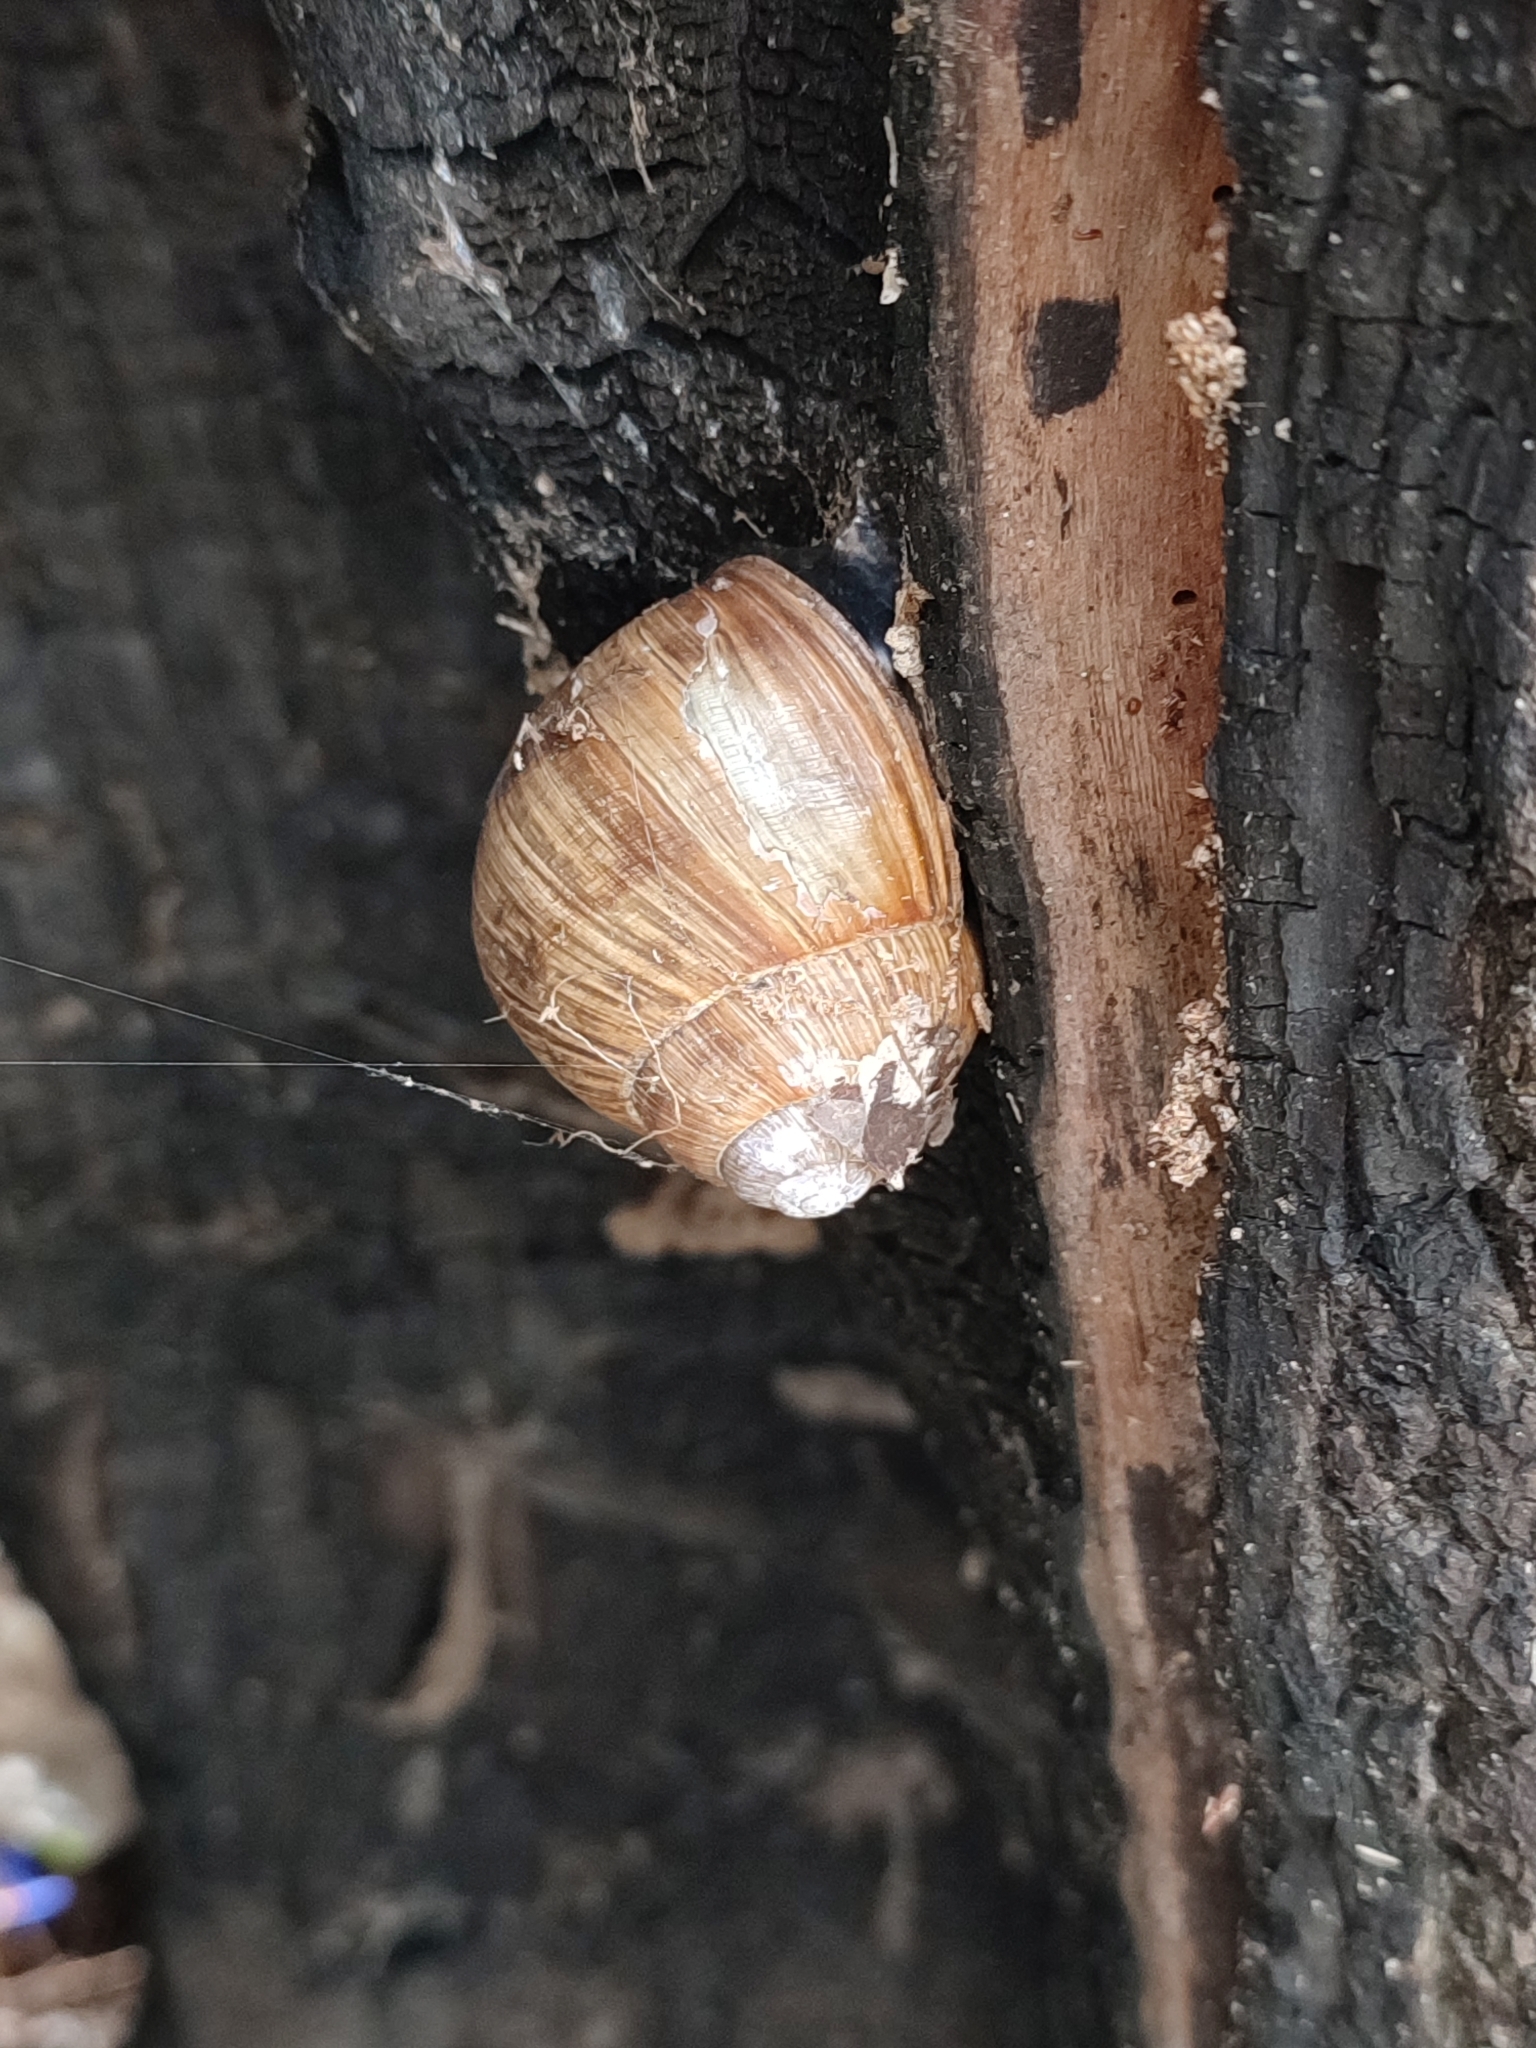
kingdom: Animalia
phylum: Mollusca
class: Gastropoda
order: Stylommatophora
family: Helicidae
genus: Helix
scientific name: Helix pomatia
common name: Roman snail
